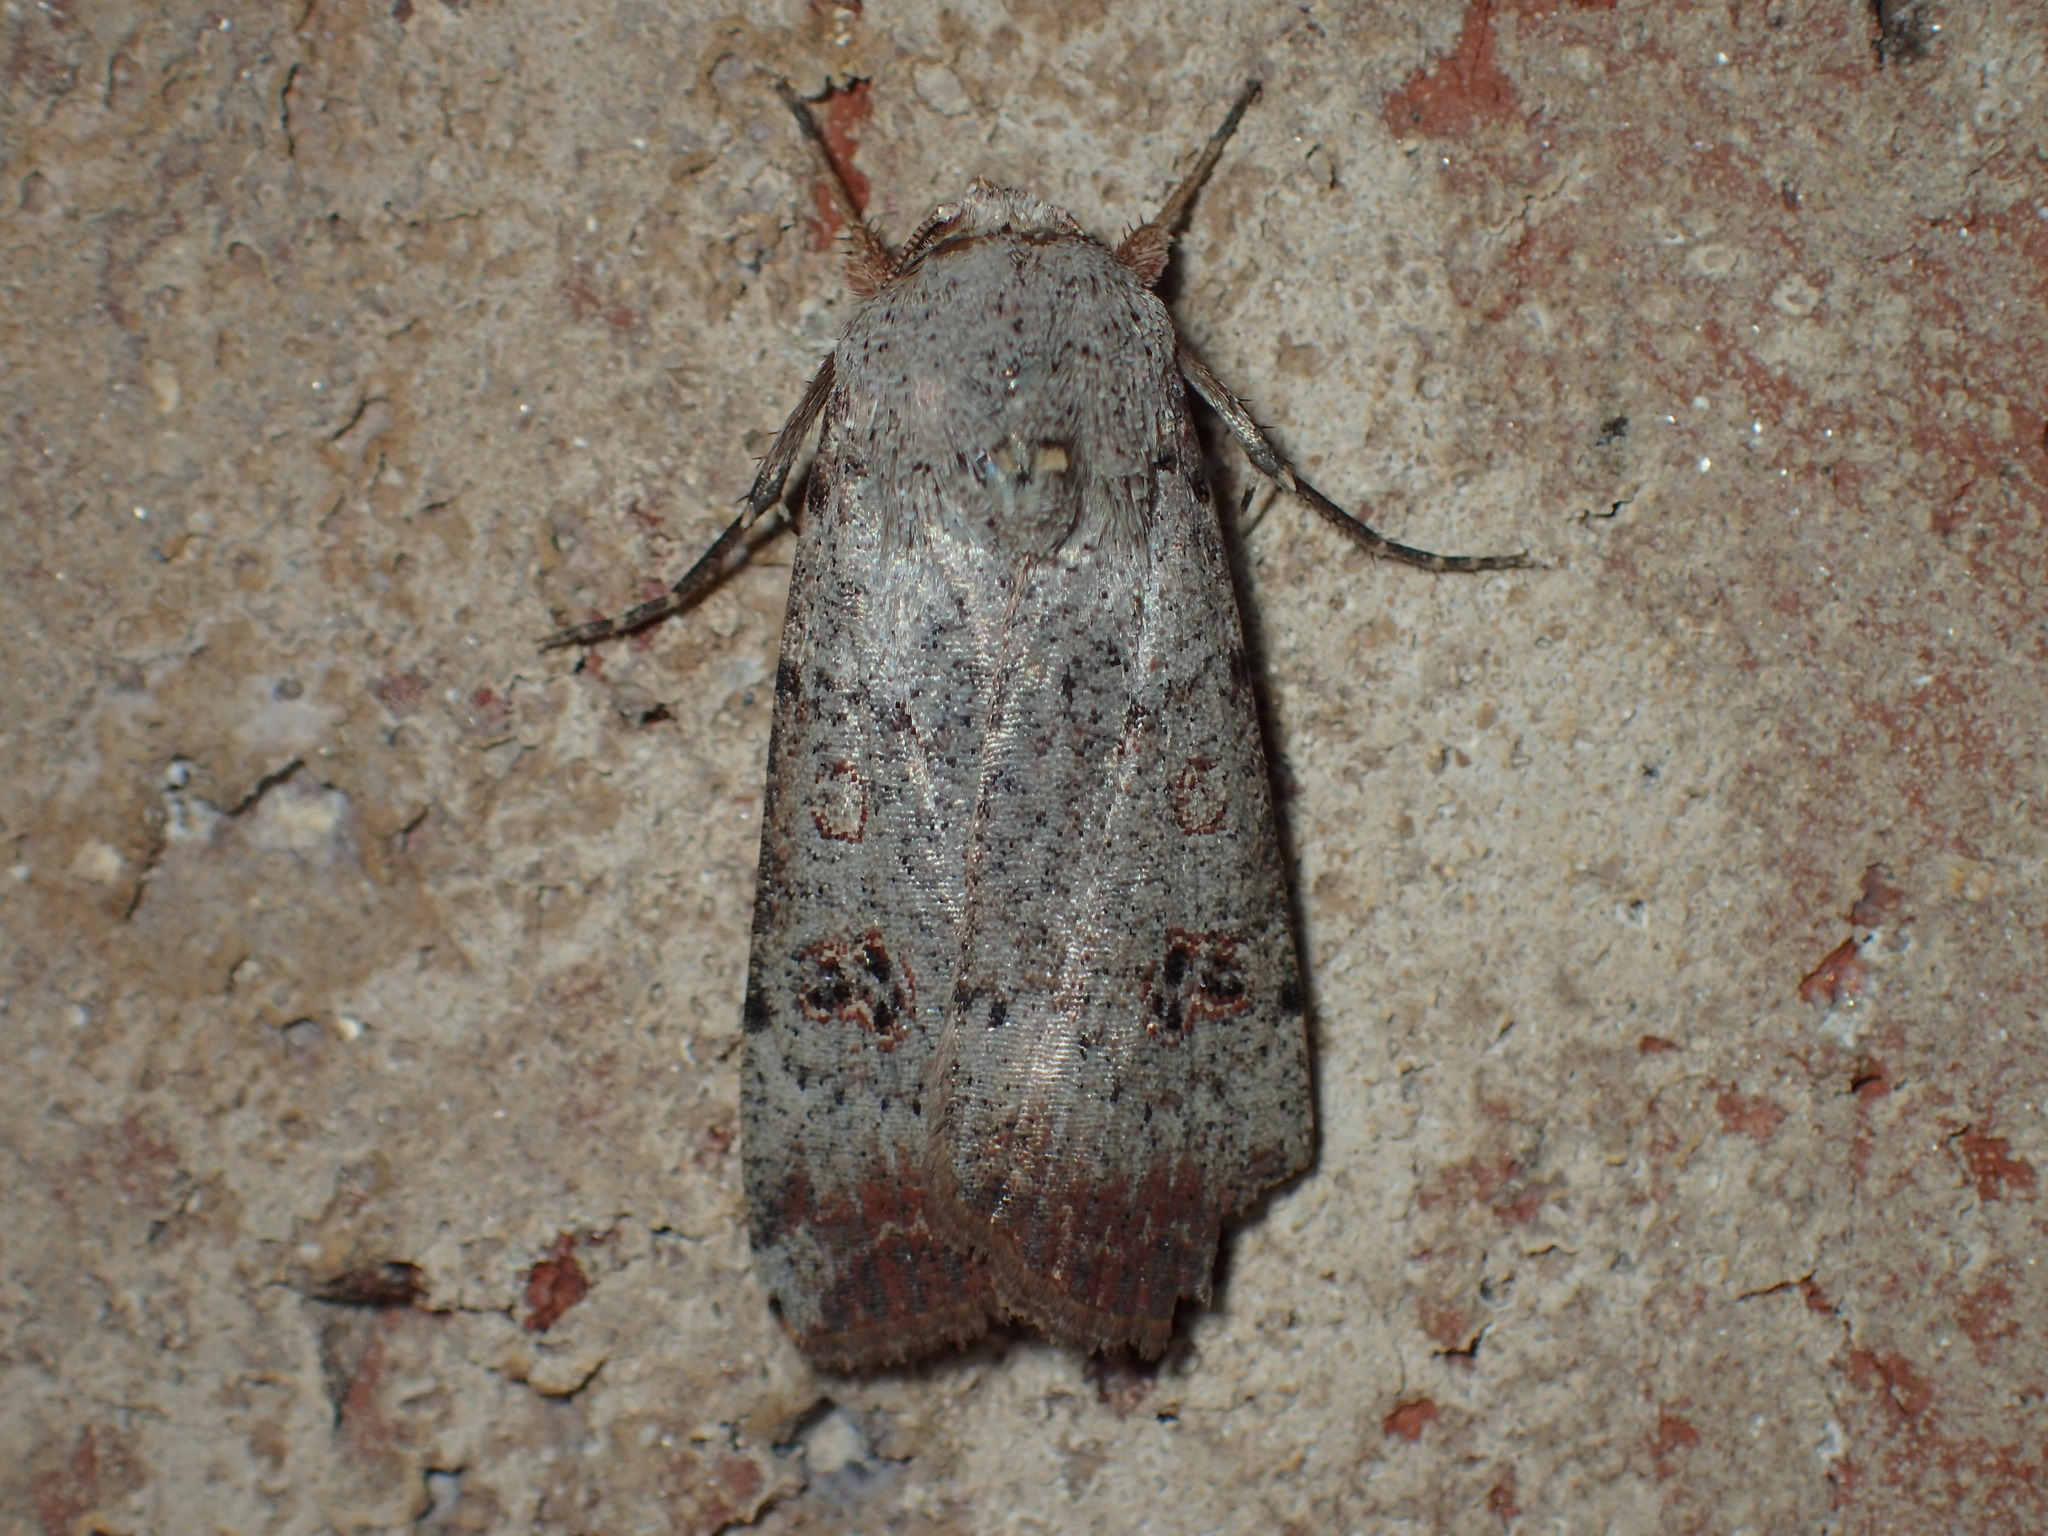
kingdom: Animalia
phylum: Arthropoda
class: Insecta
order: Lepidoptera
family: Noctuidae
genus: Anicla
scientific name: Anicla infecta
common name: Green cutworm
